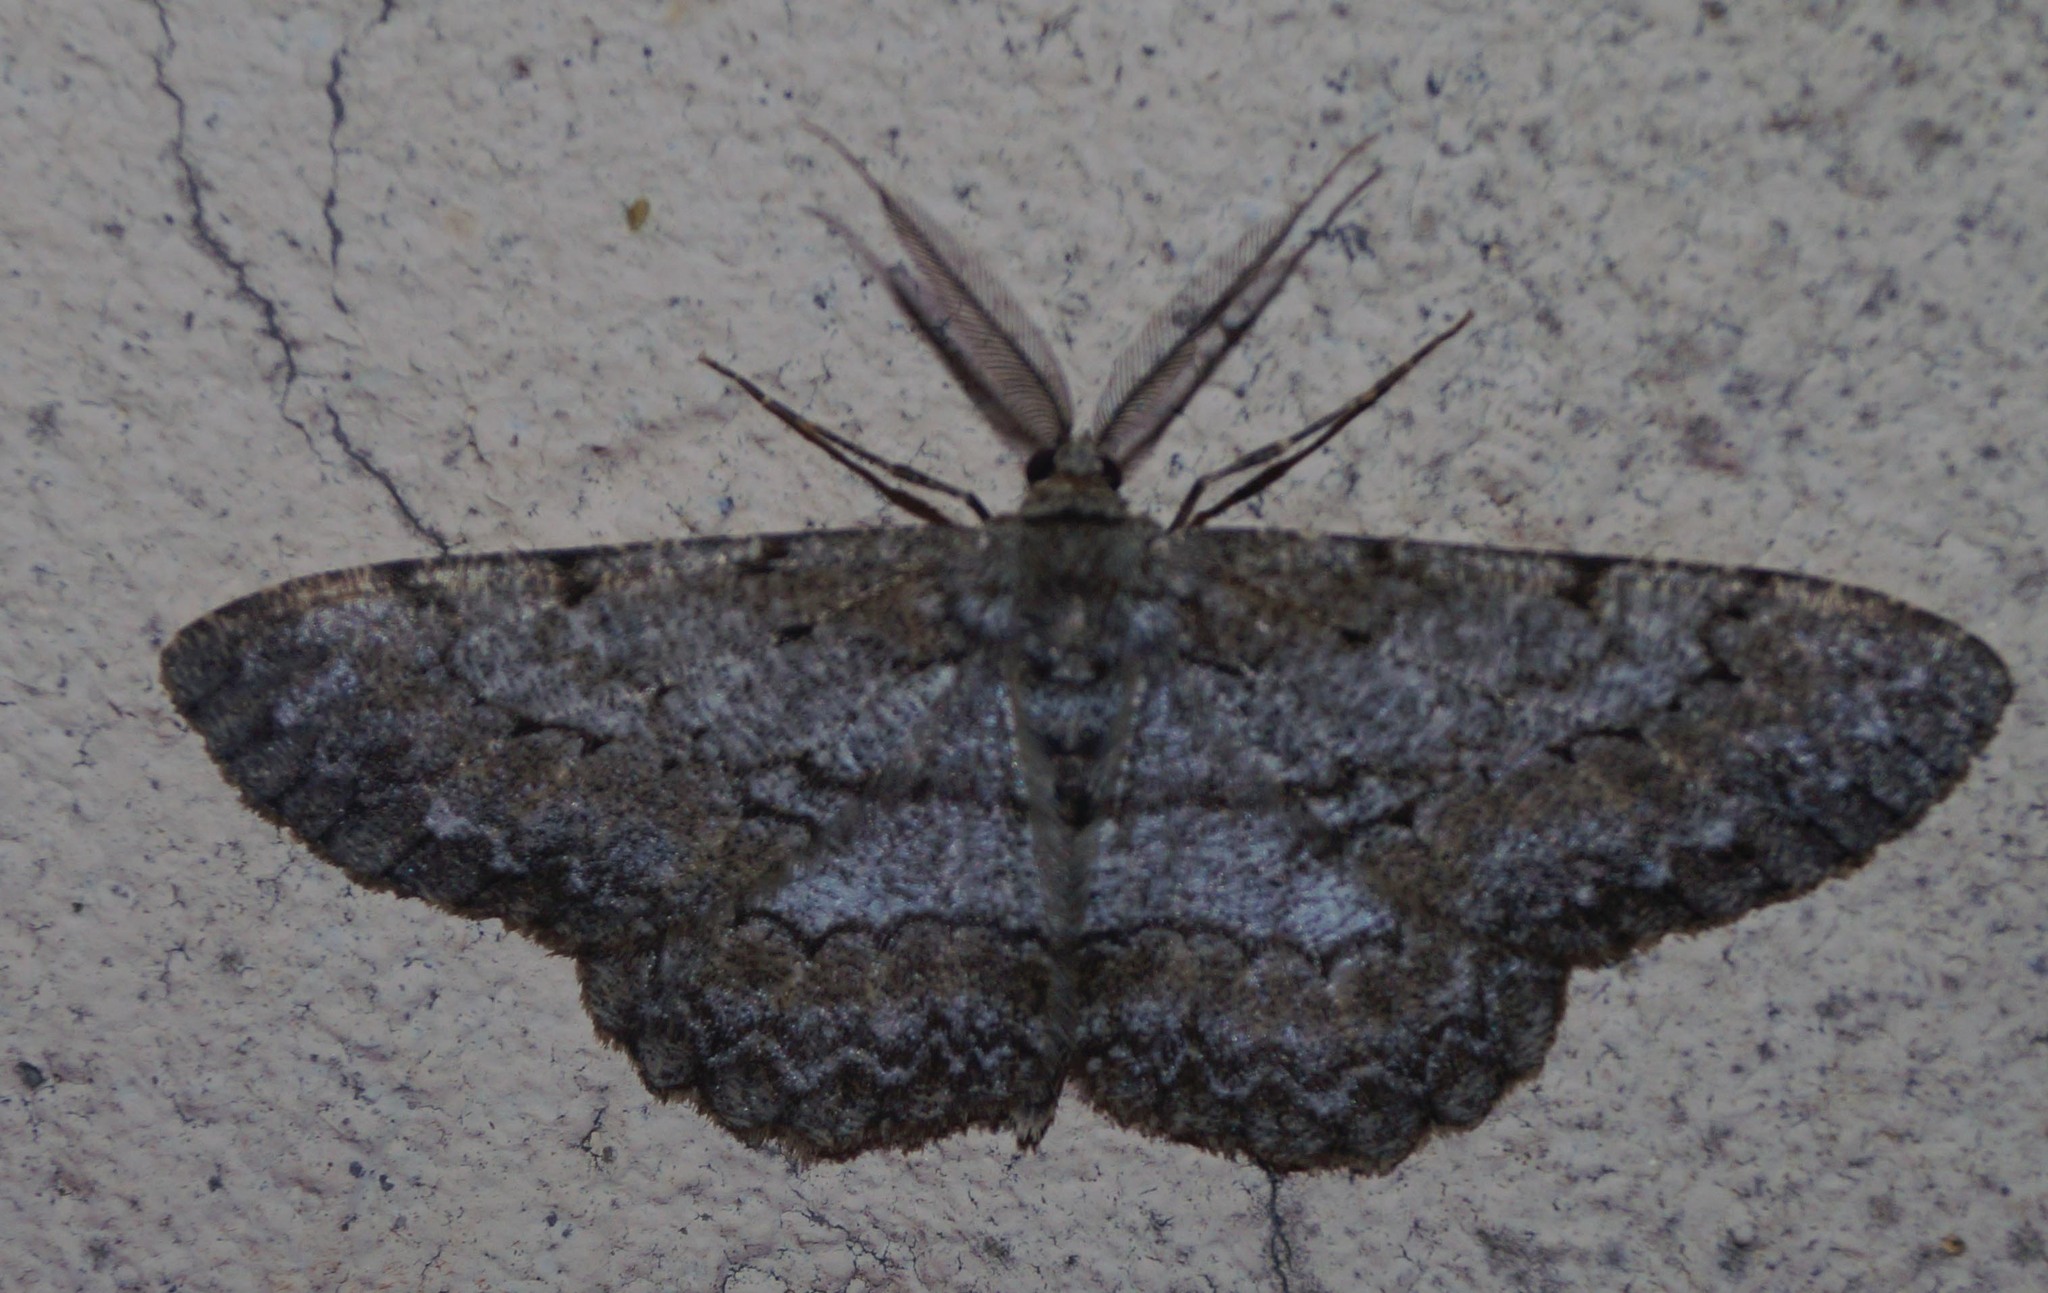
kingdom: Animalia
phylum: Arthropoda
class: Insecta
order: Lepidoptera
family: Geometridae
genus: Hypomecis
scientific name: Hypomecis punctinalis
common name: Pale oak beauty
